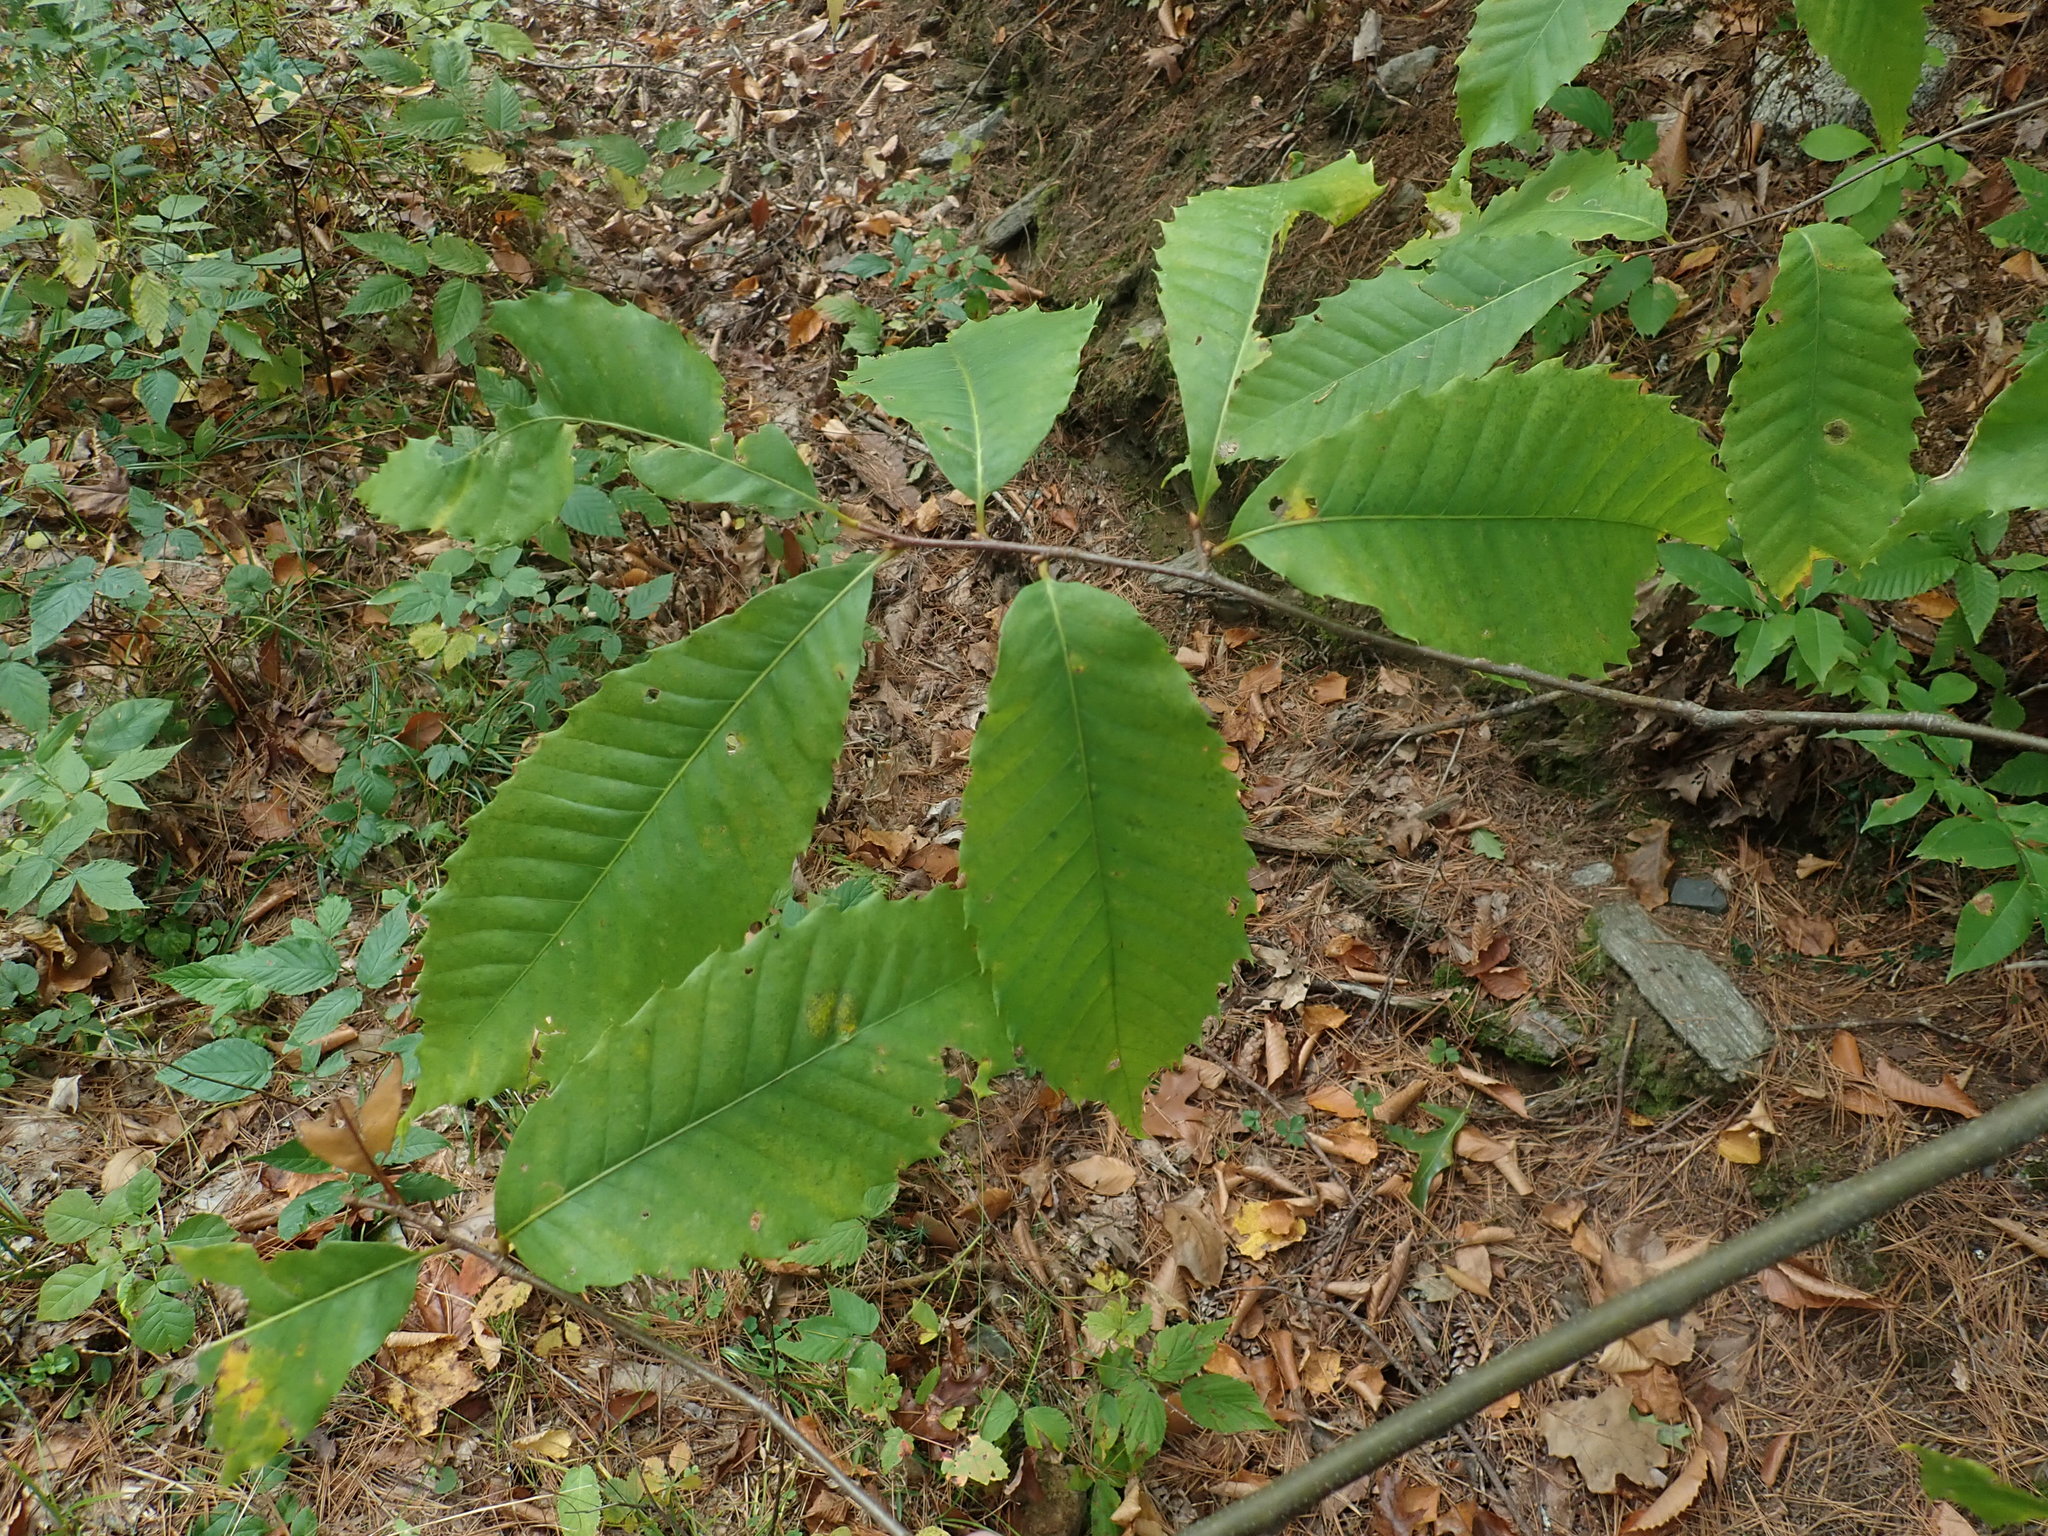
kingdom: Plantae
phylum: Tracheophyta
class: Magnoliopsida
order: Fagales
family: Fagaceae
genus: Castanea
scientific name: Castanea dentata
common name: American chestnut
